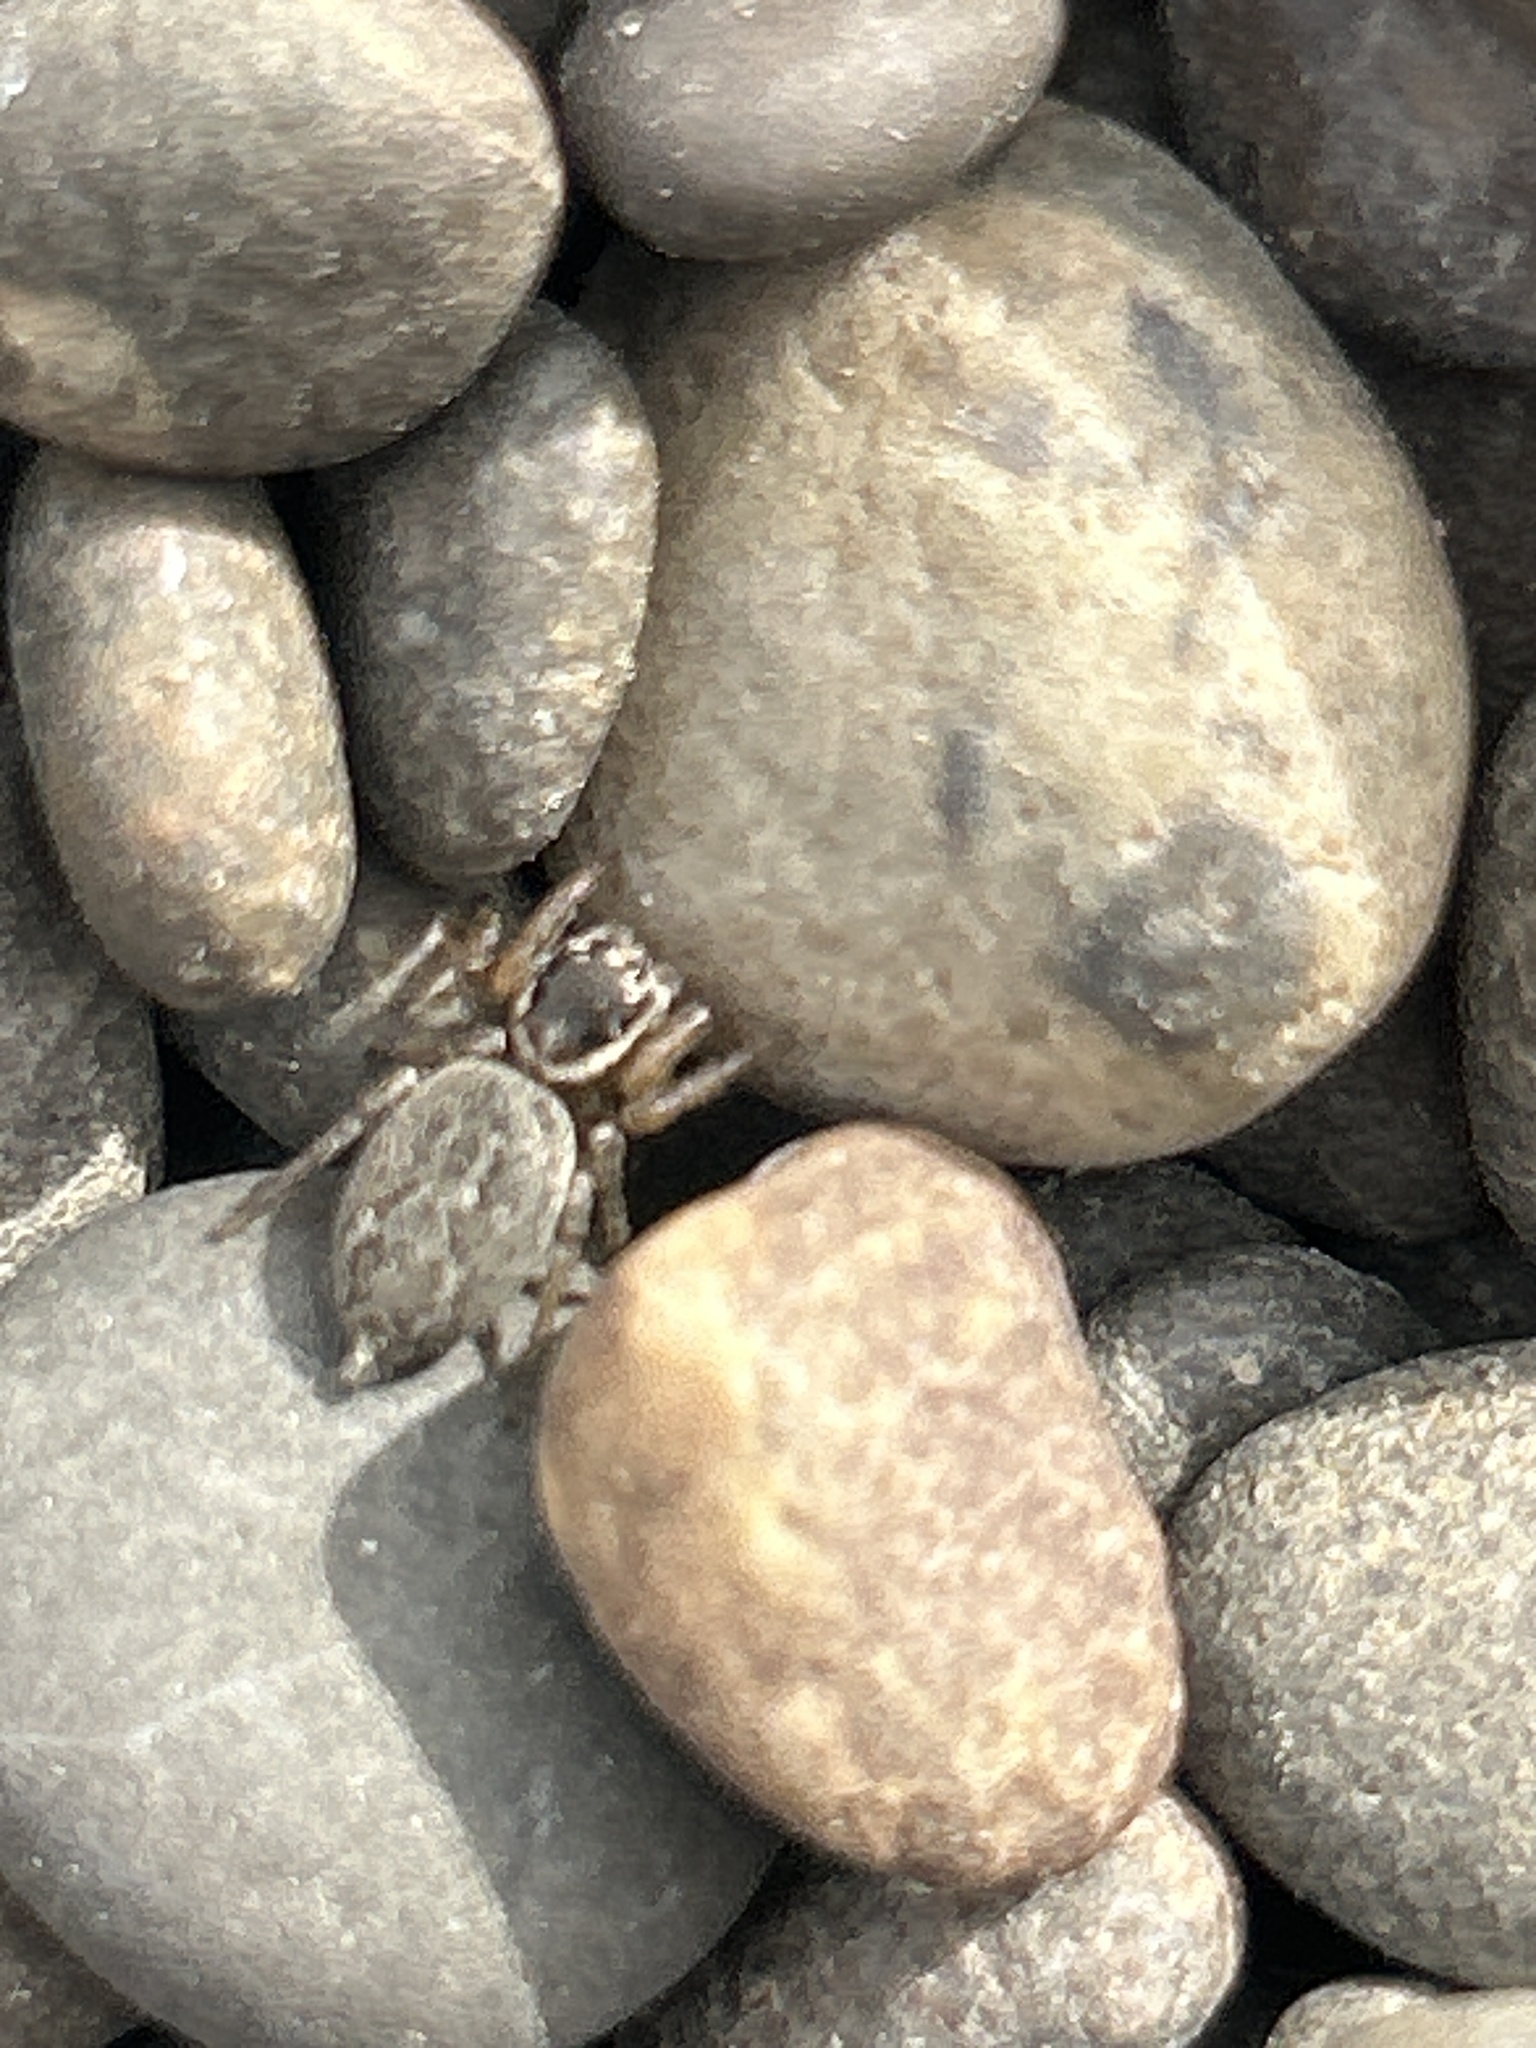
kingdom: Animalia
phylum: Arthropoda
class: Arachnida
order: Araneae
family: Salticidae
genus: Maratus
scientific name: Maratus griseus
